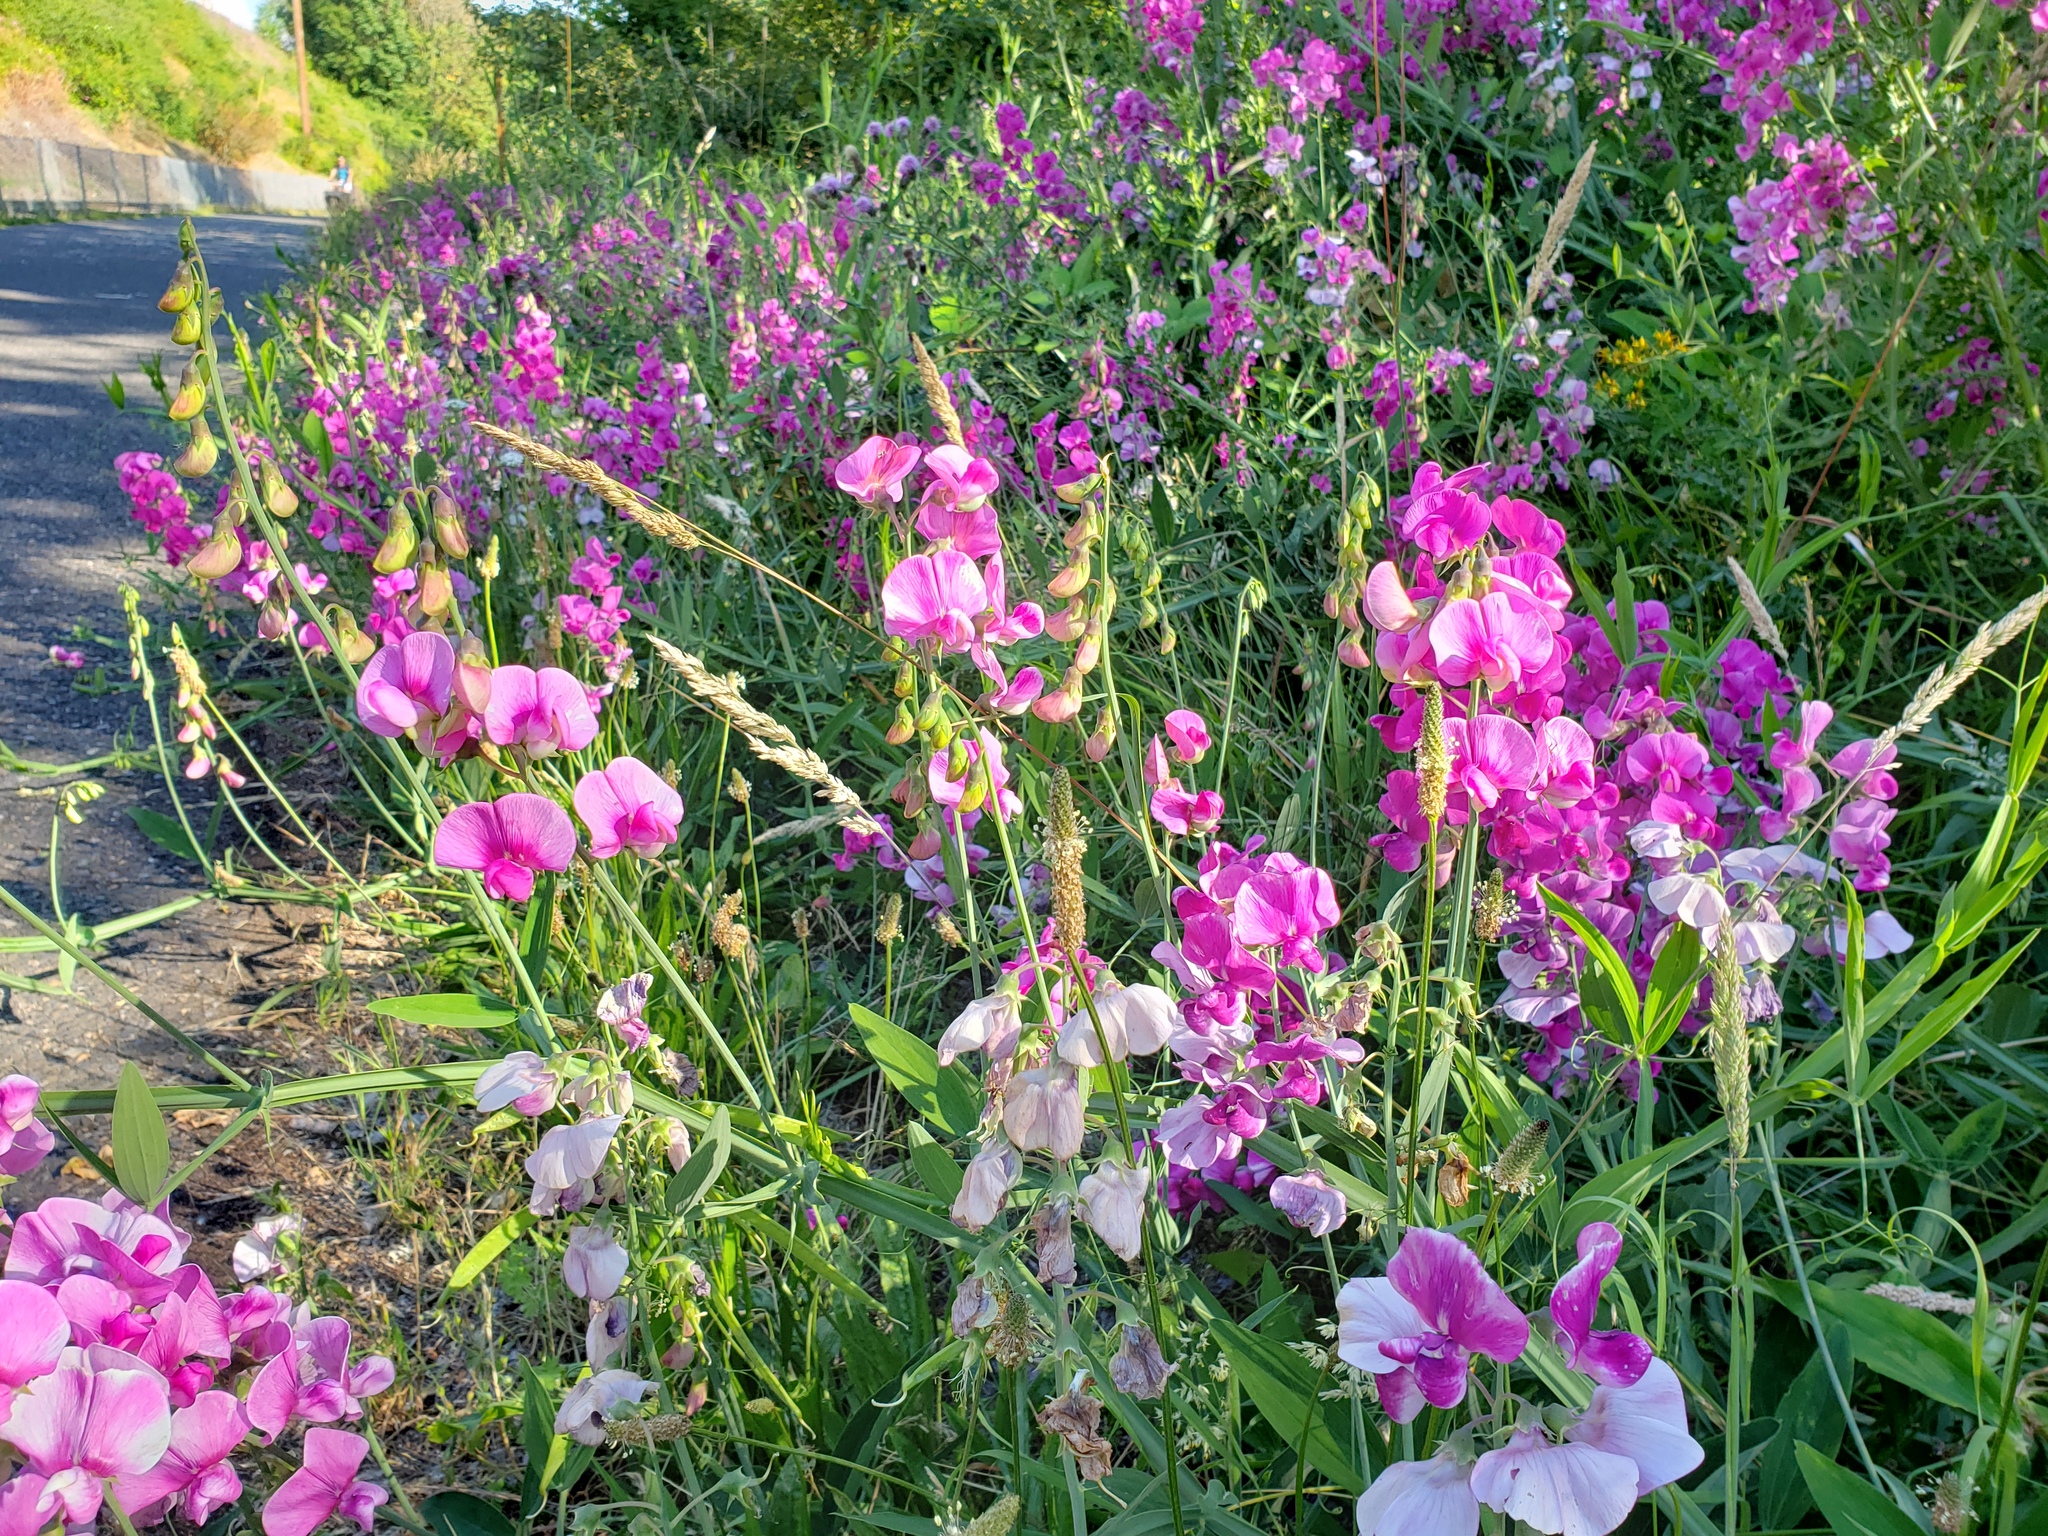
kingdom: Plantae
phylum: Tracheophyta
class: Magnoliopsida
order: Fabales
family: Fabaceae
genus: Lathyrus
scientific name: Lathyrus latifolius
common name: Perennial pea
